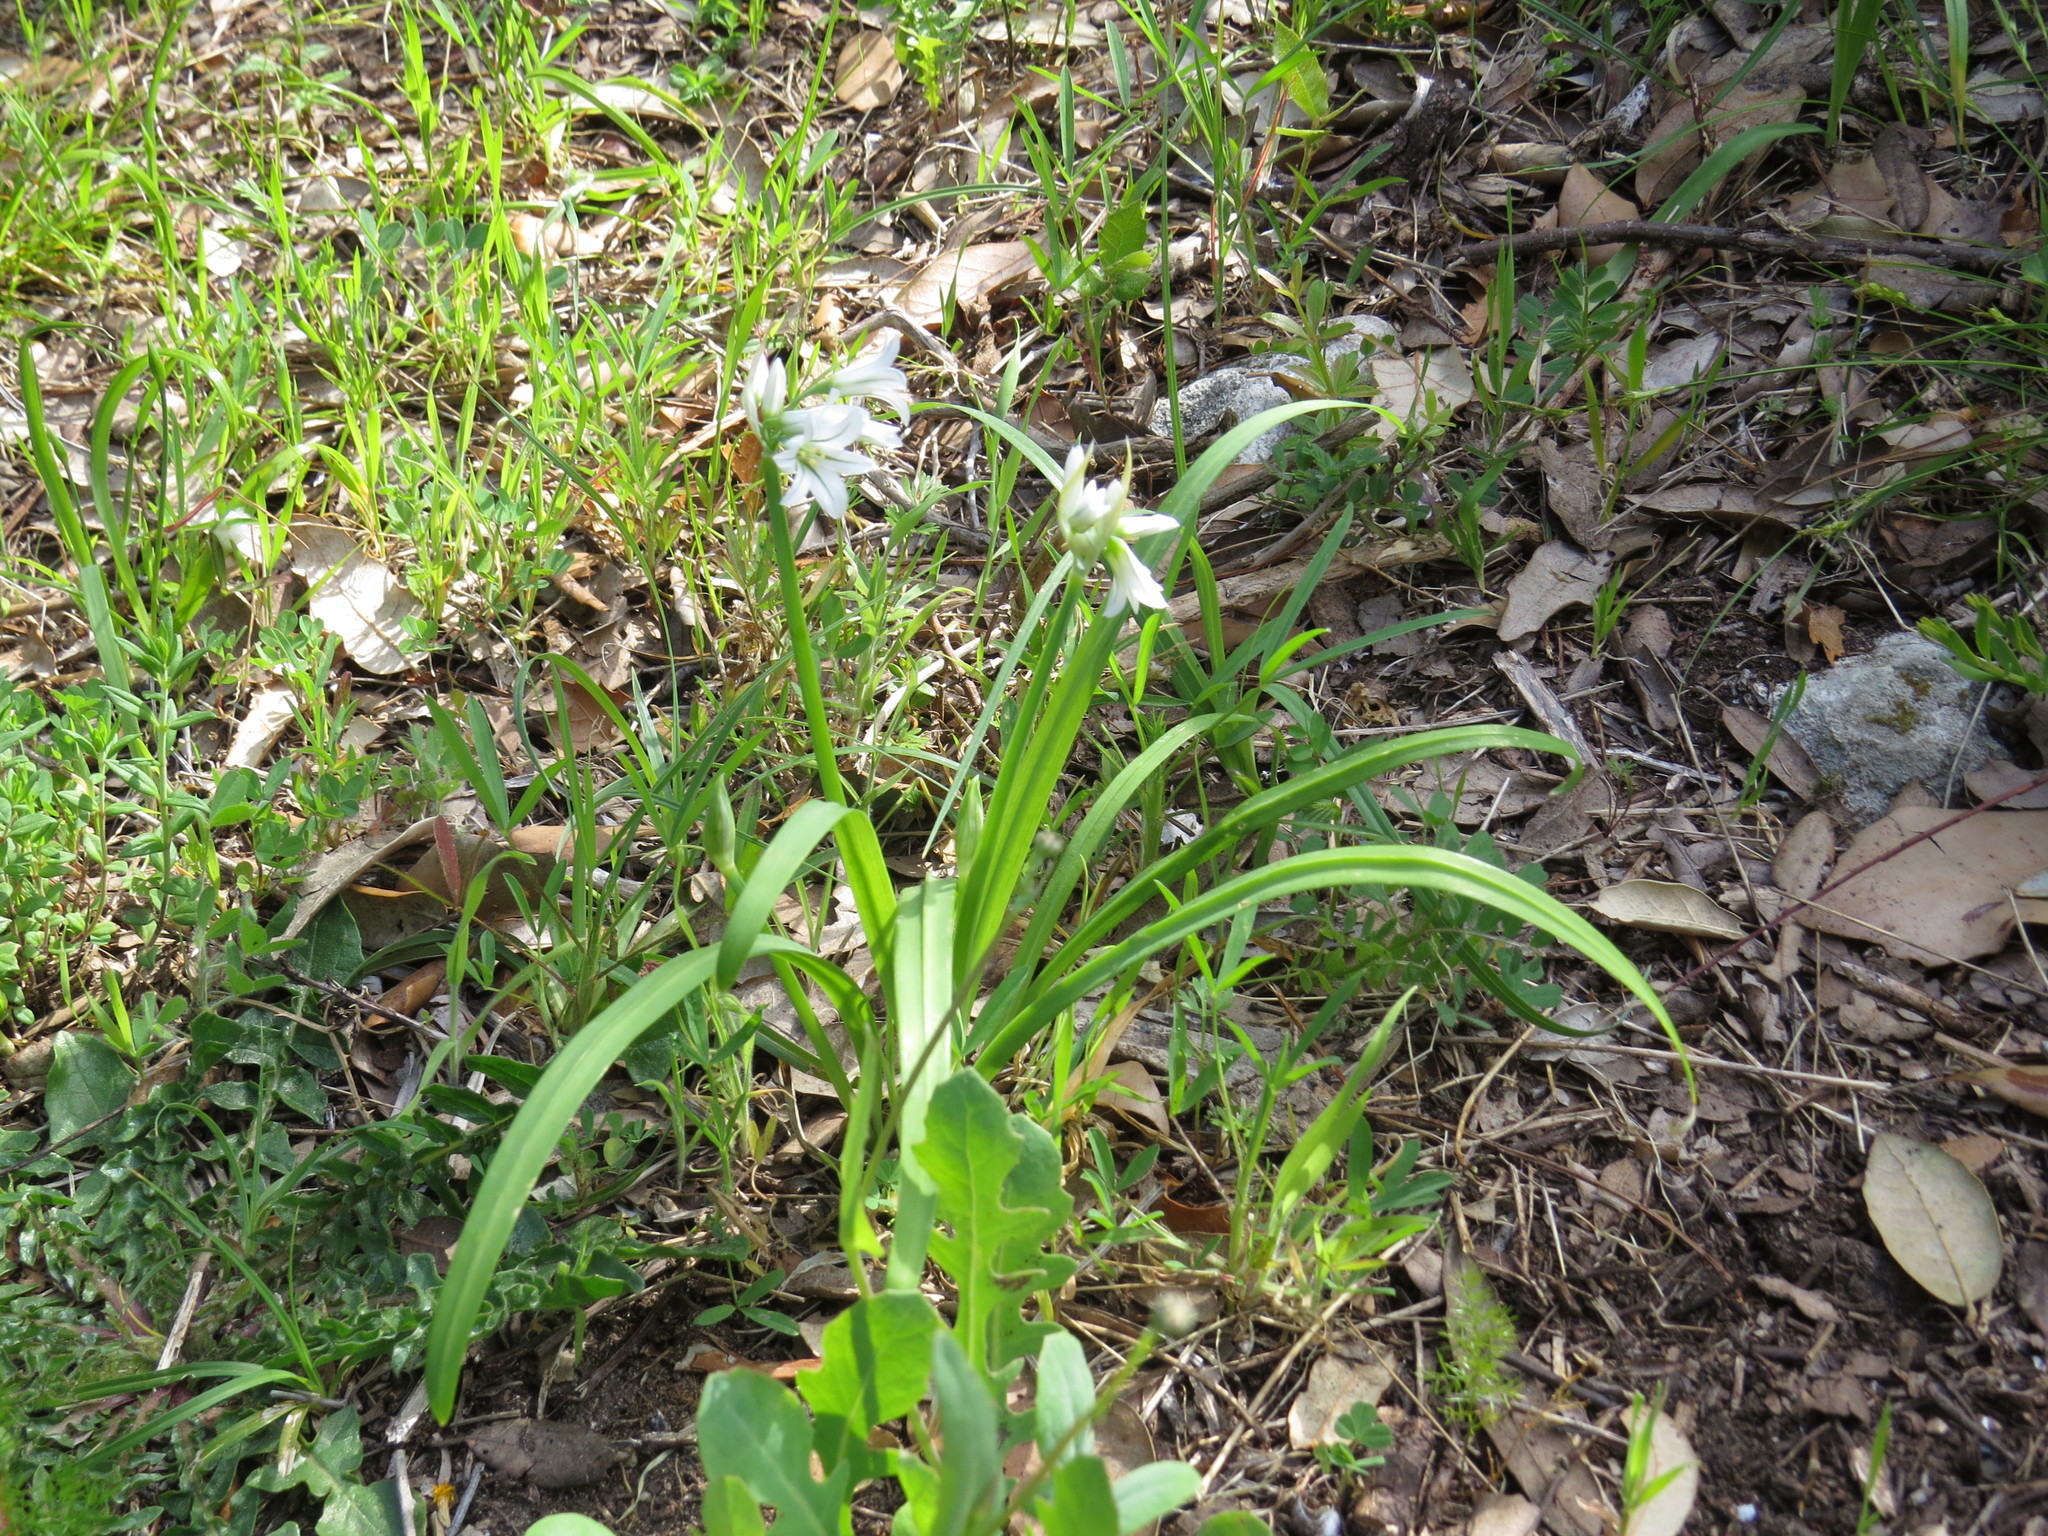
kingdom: Plantae
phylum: Tracheophyta
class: Liliopsida
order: Asparagales
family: Amaryllidaceae
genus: Allium
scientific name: Allium triquetrum
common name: Three-cornered garlic
